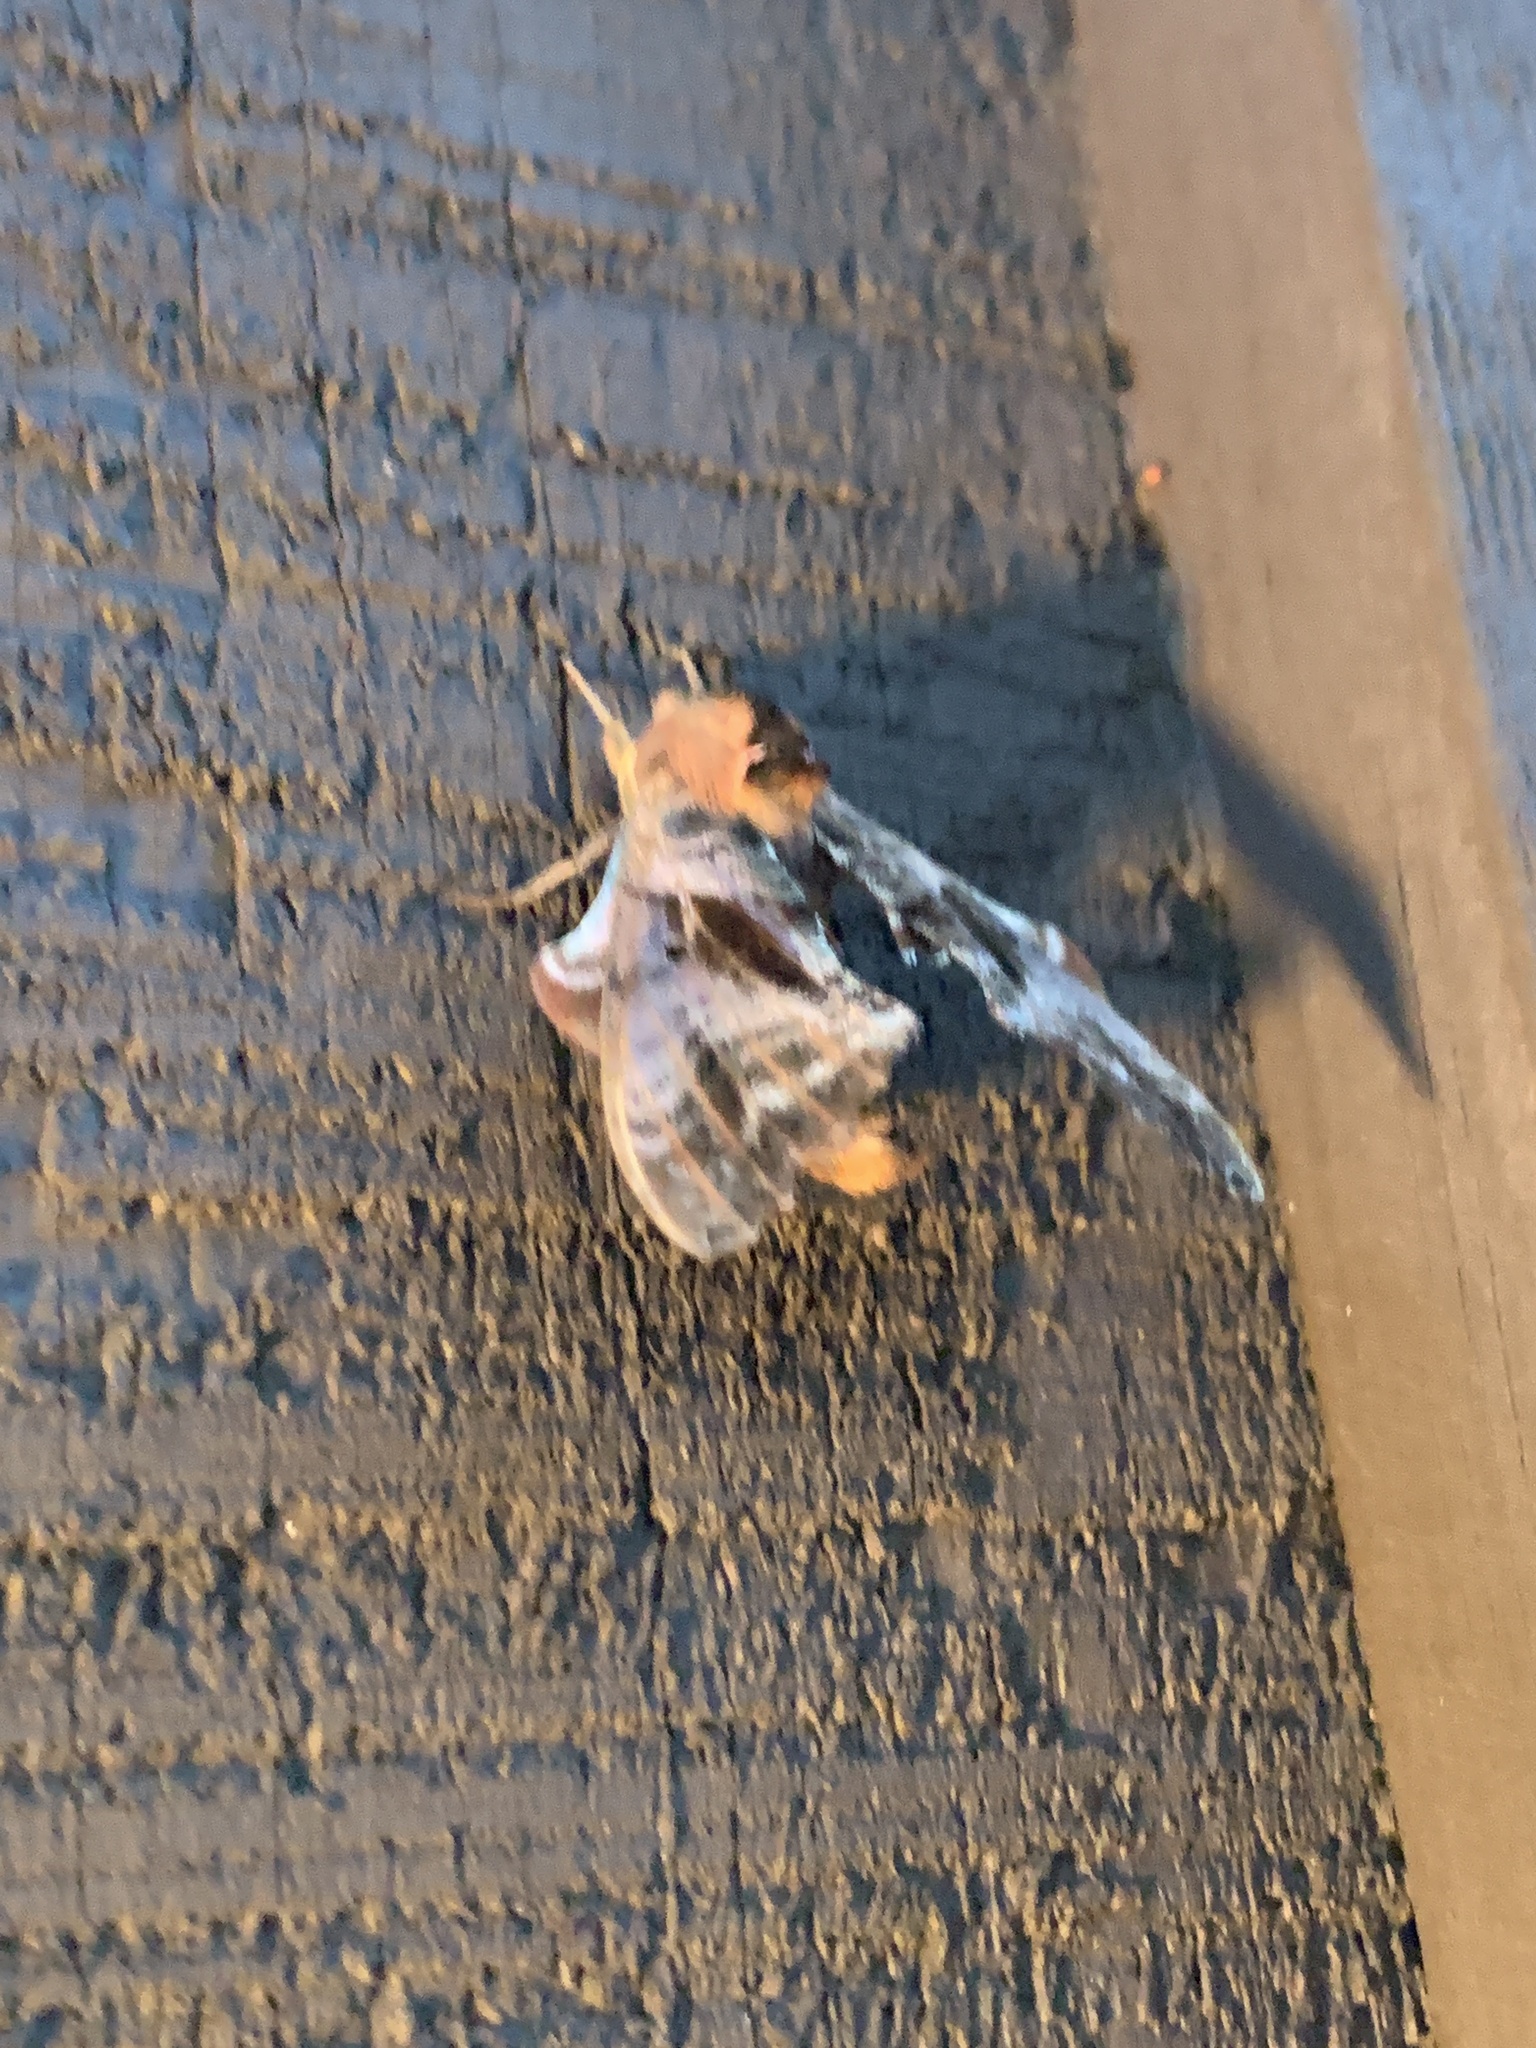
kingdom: Animalia
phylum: Arthropoda
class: Insecta
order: Lepidoptera
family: Sphingidae
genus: Paonias
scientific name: Paonias excaecata
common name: Blind-eyed sphinx
